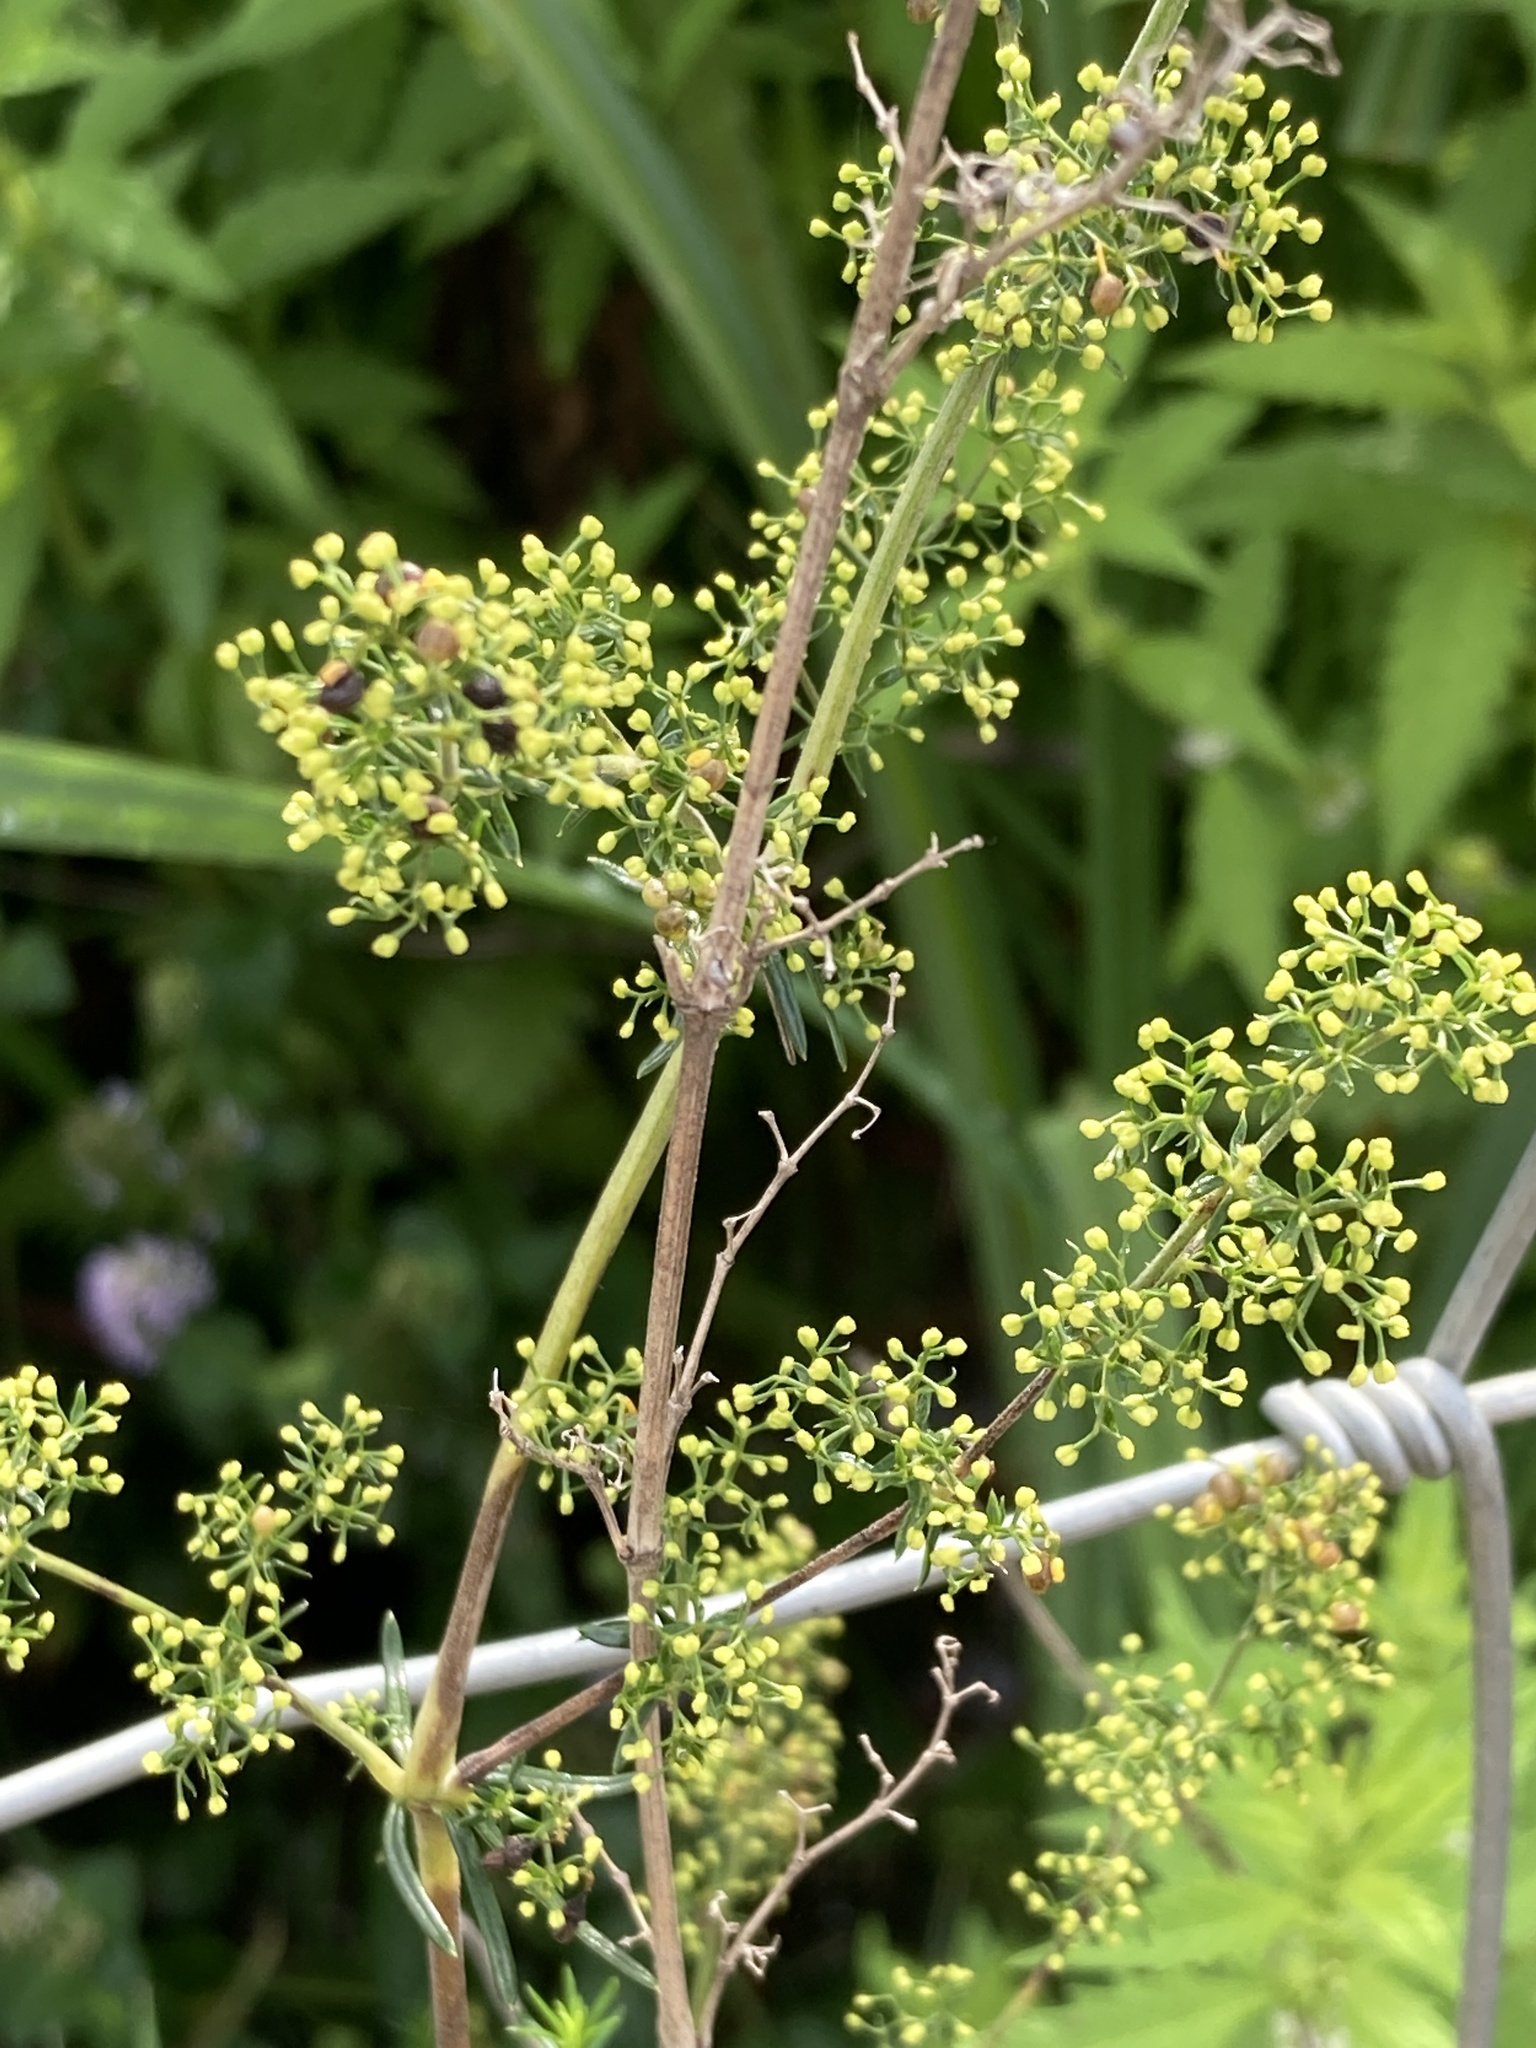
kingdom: Plantae
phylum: Tracheophyta
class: Magnoliopsida
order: Gentianales
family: Rubiaceae
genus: Galium
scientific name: Galium verum
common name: Lady's bedstraw
